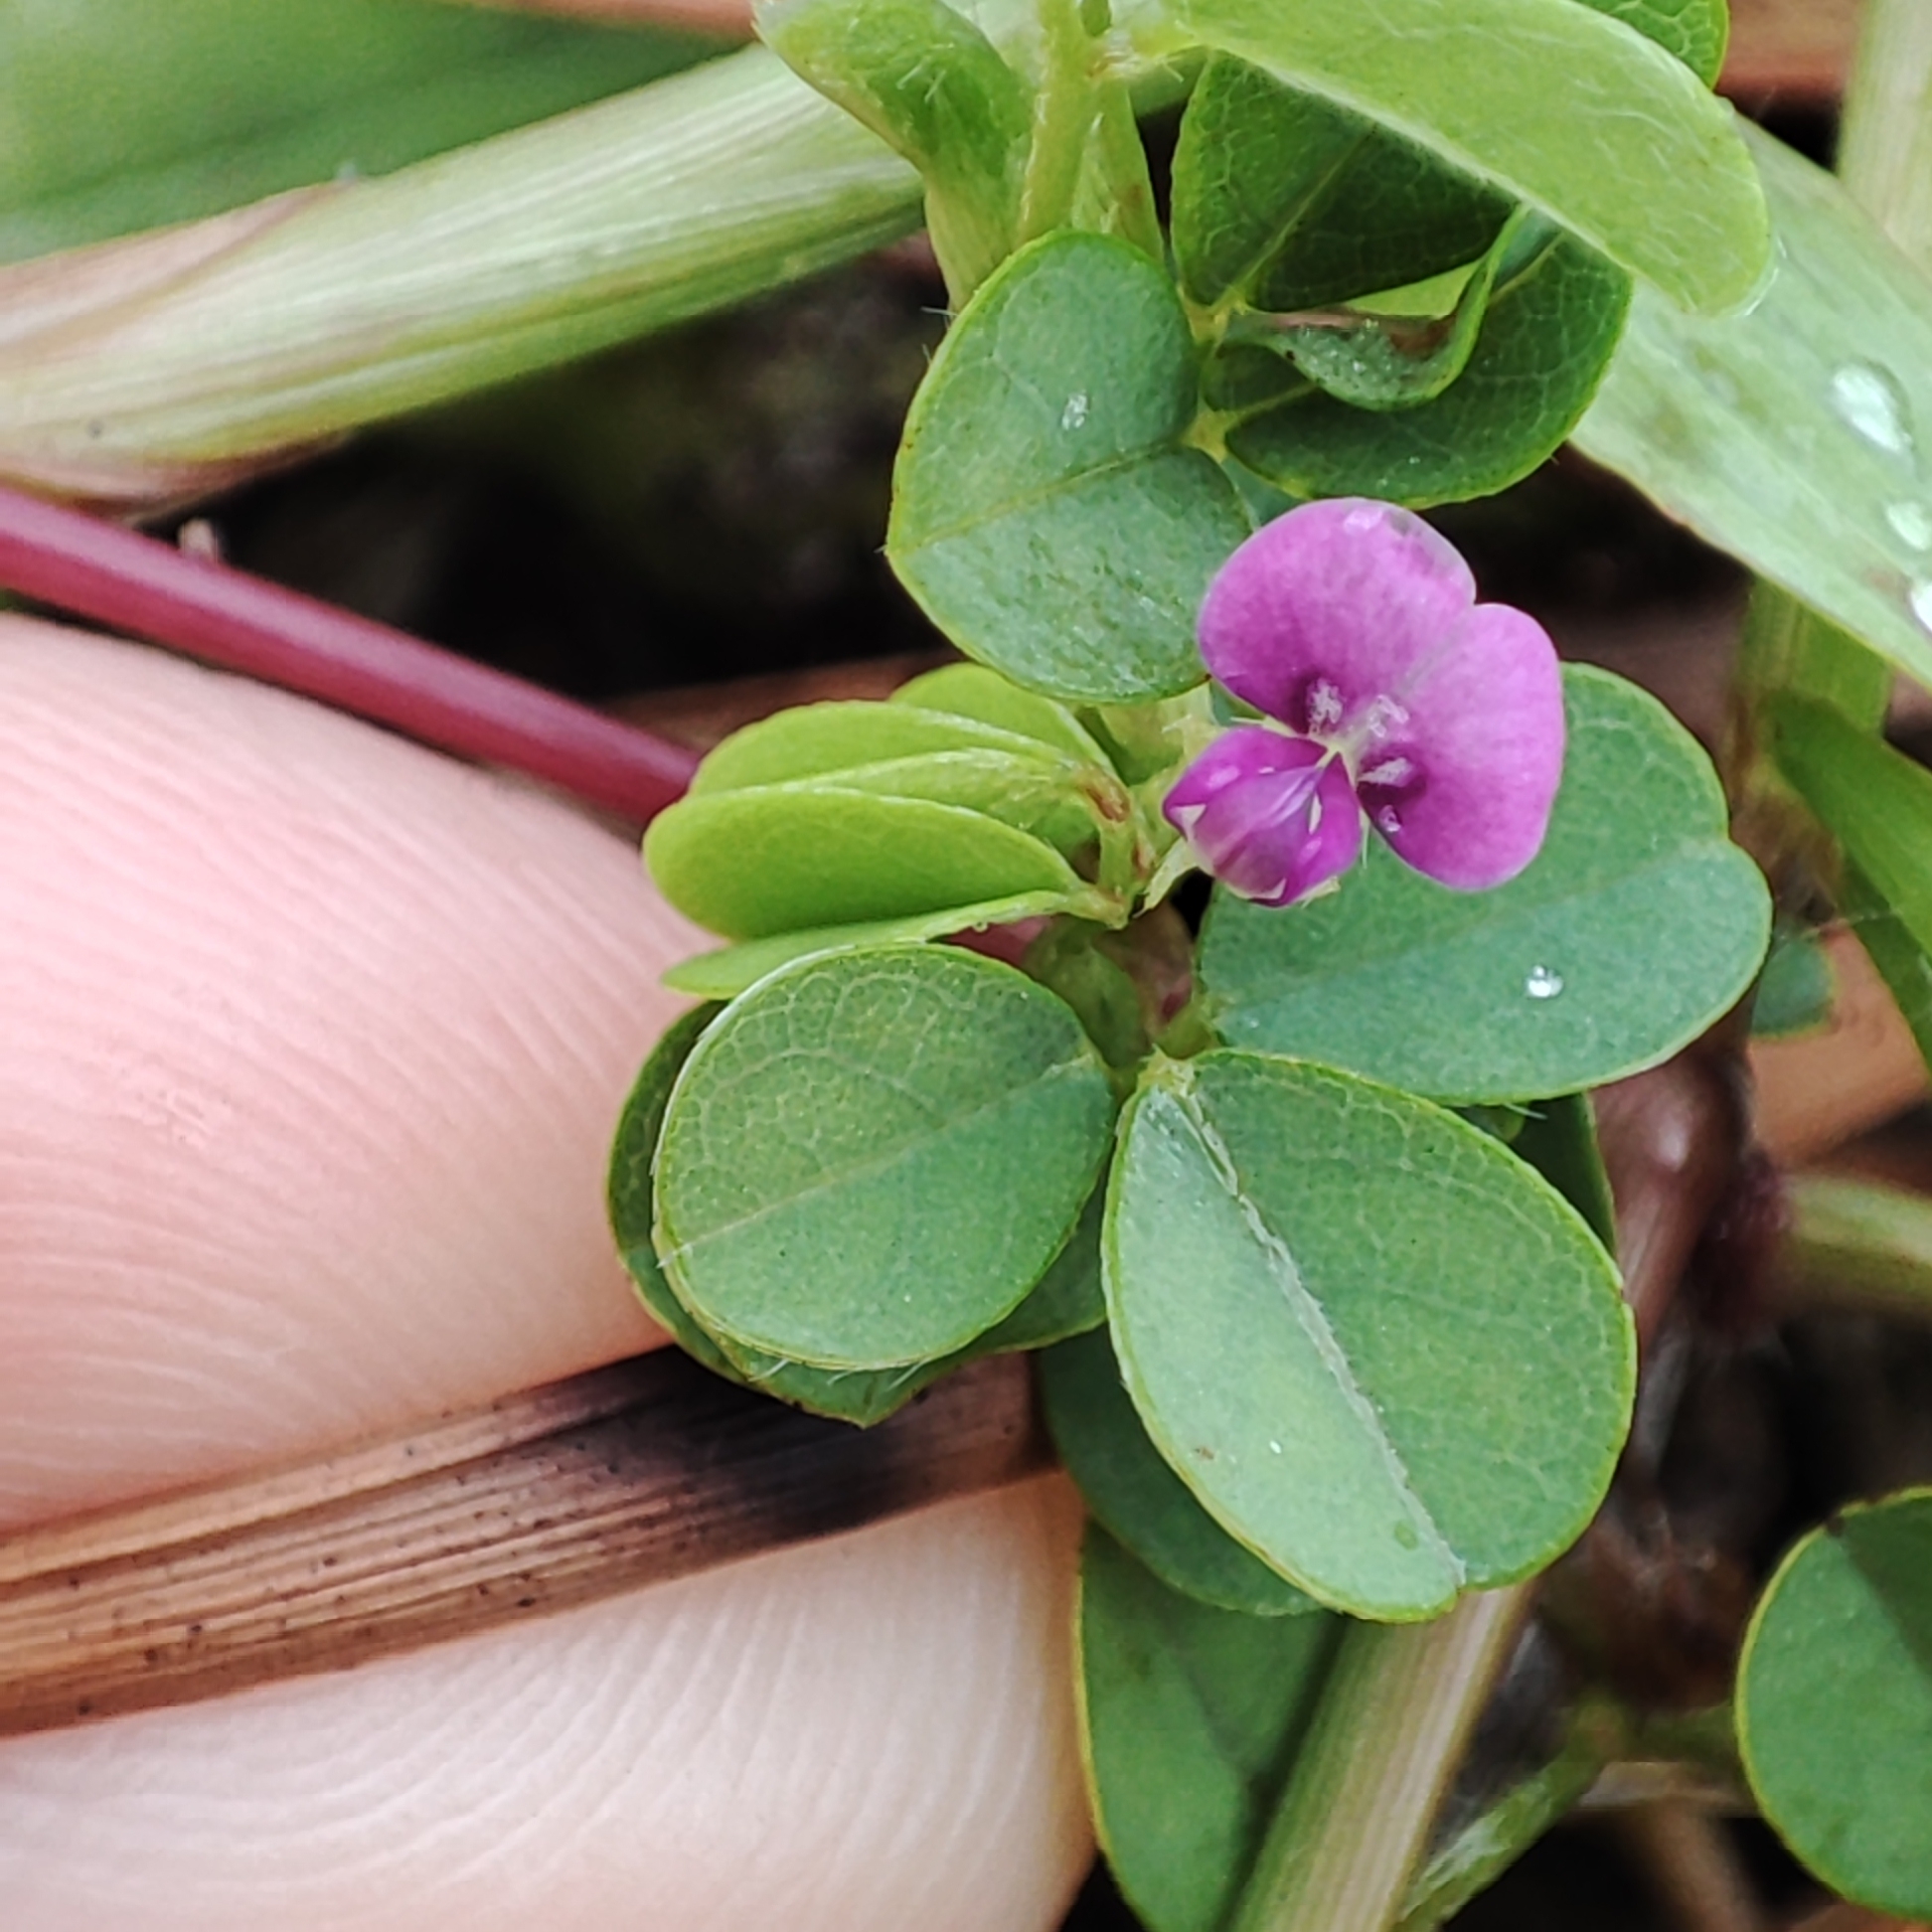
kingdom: Plantae
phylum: Tracheophyta
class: Magnoliopsida
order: Fabales
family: Fabaceae
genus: Grona
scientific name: Grona triflora
